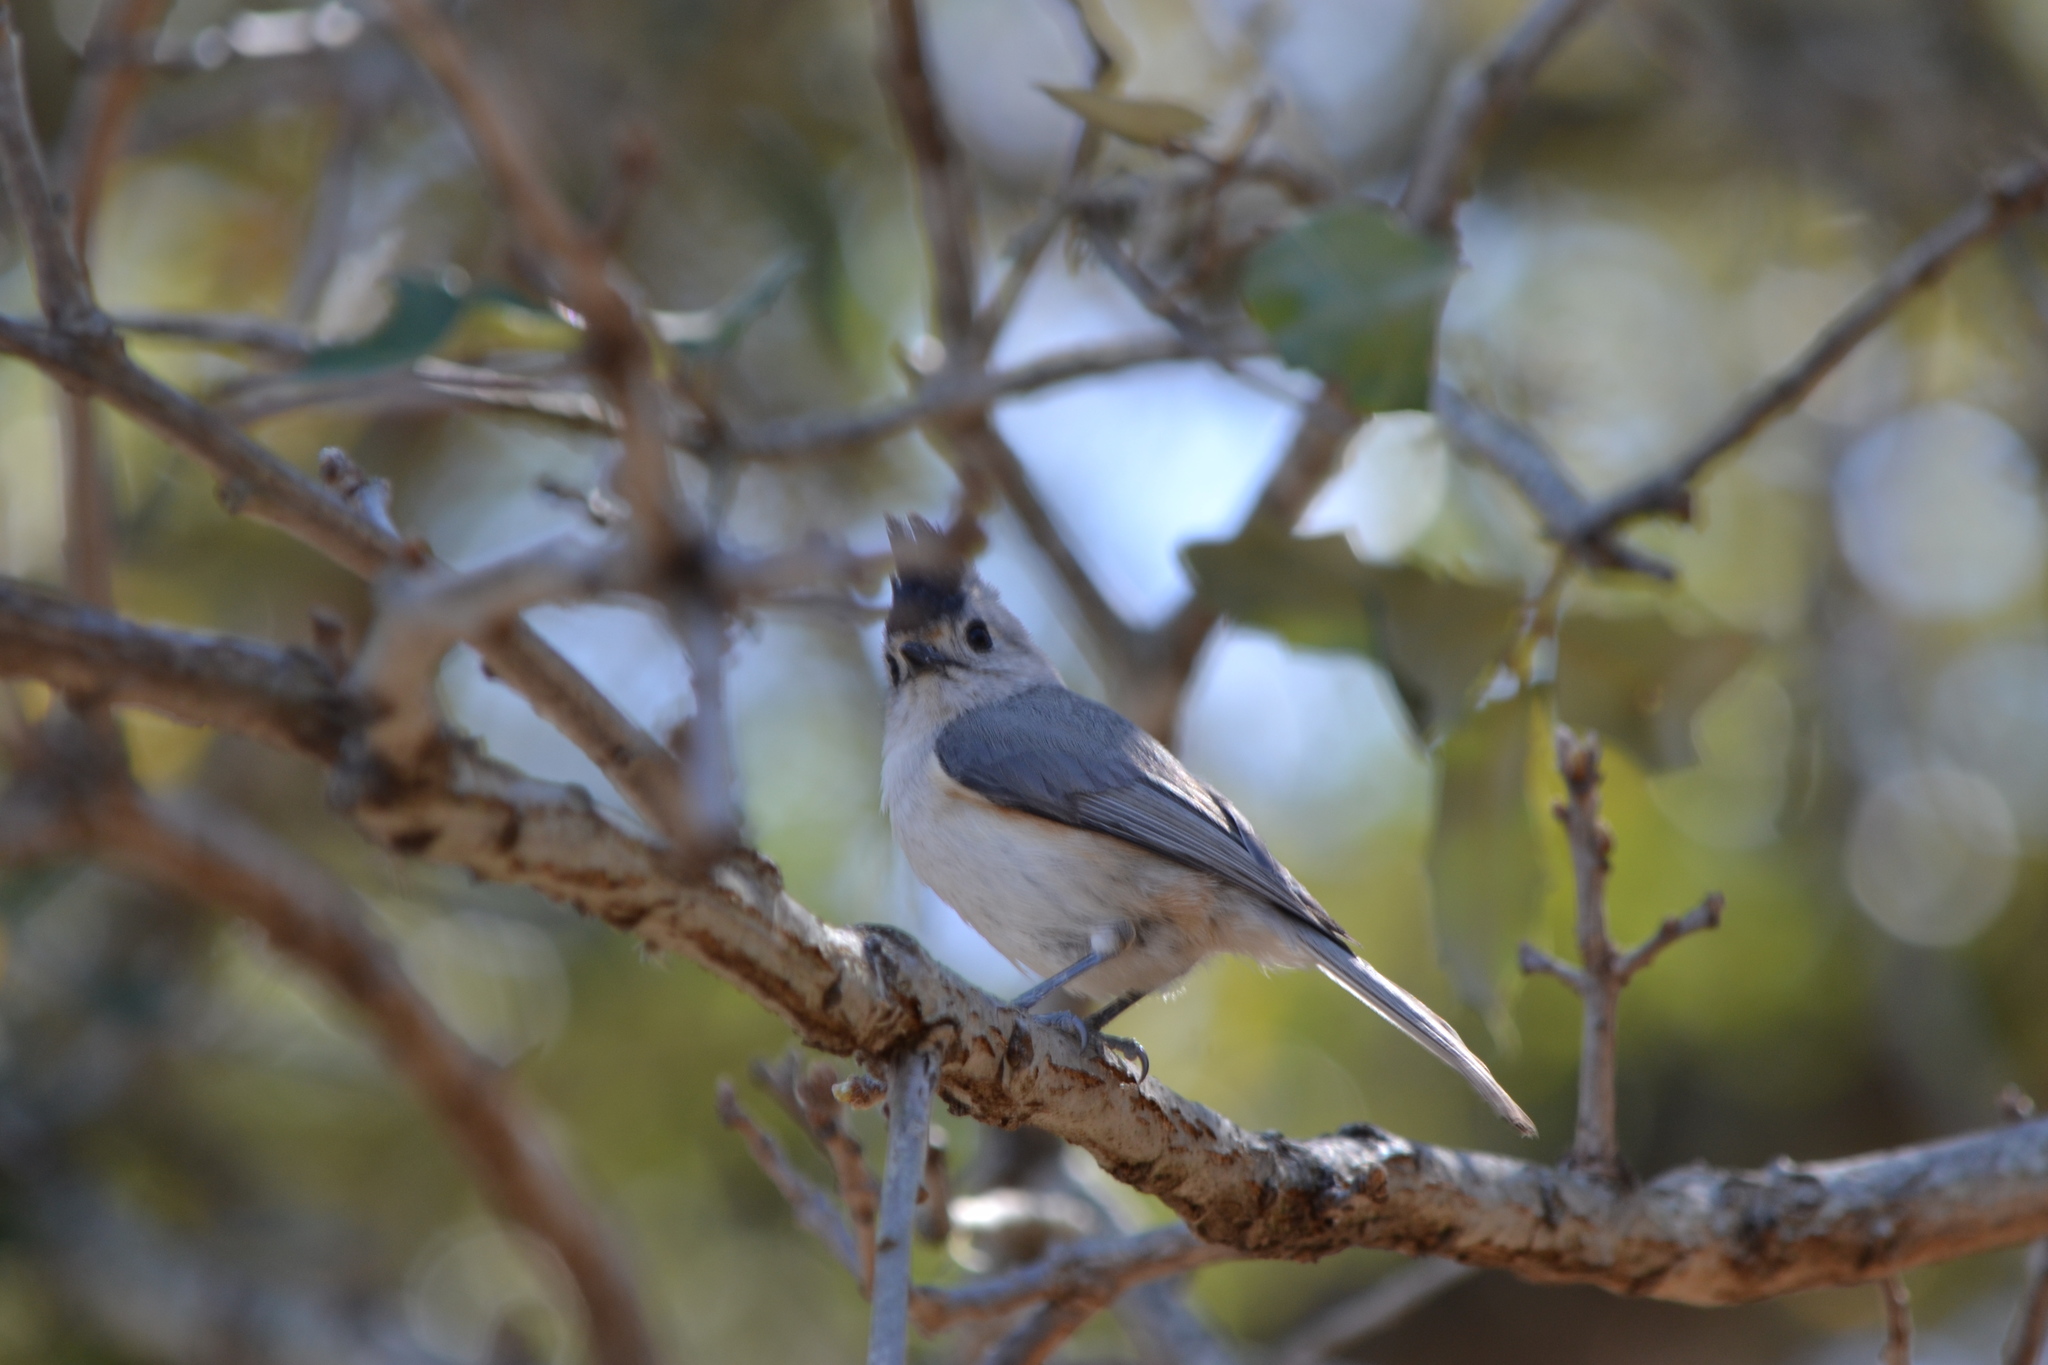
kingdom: Animalia
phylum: Chordata
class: Aves
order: Passeriformes
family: Paridae
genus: Baeolophus
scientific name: Baeolophus atricristatus
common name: Black-crested titmouse
